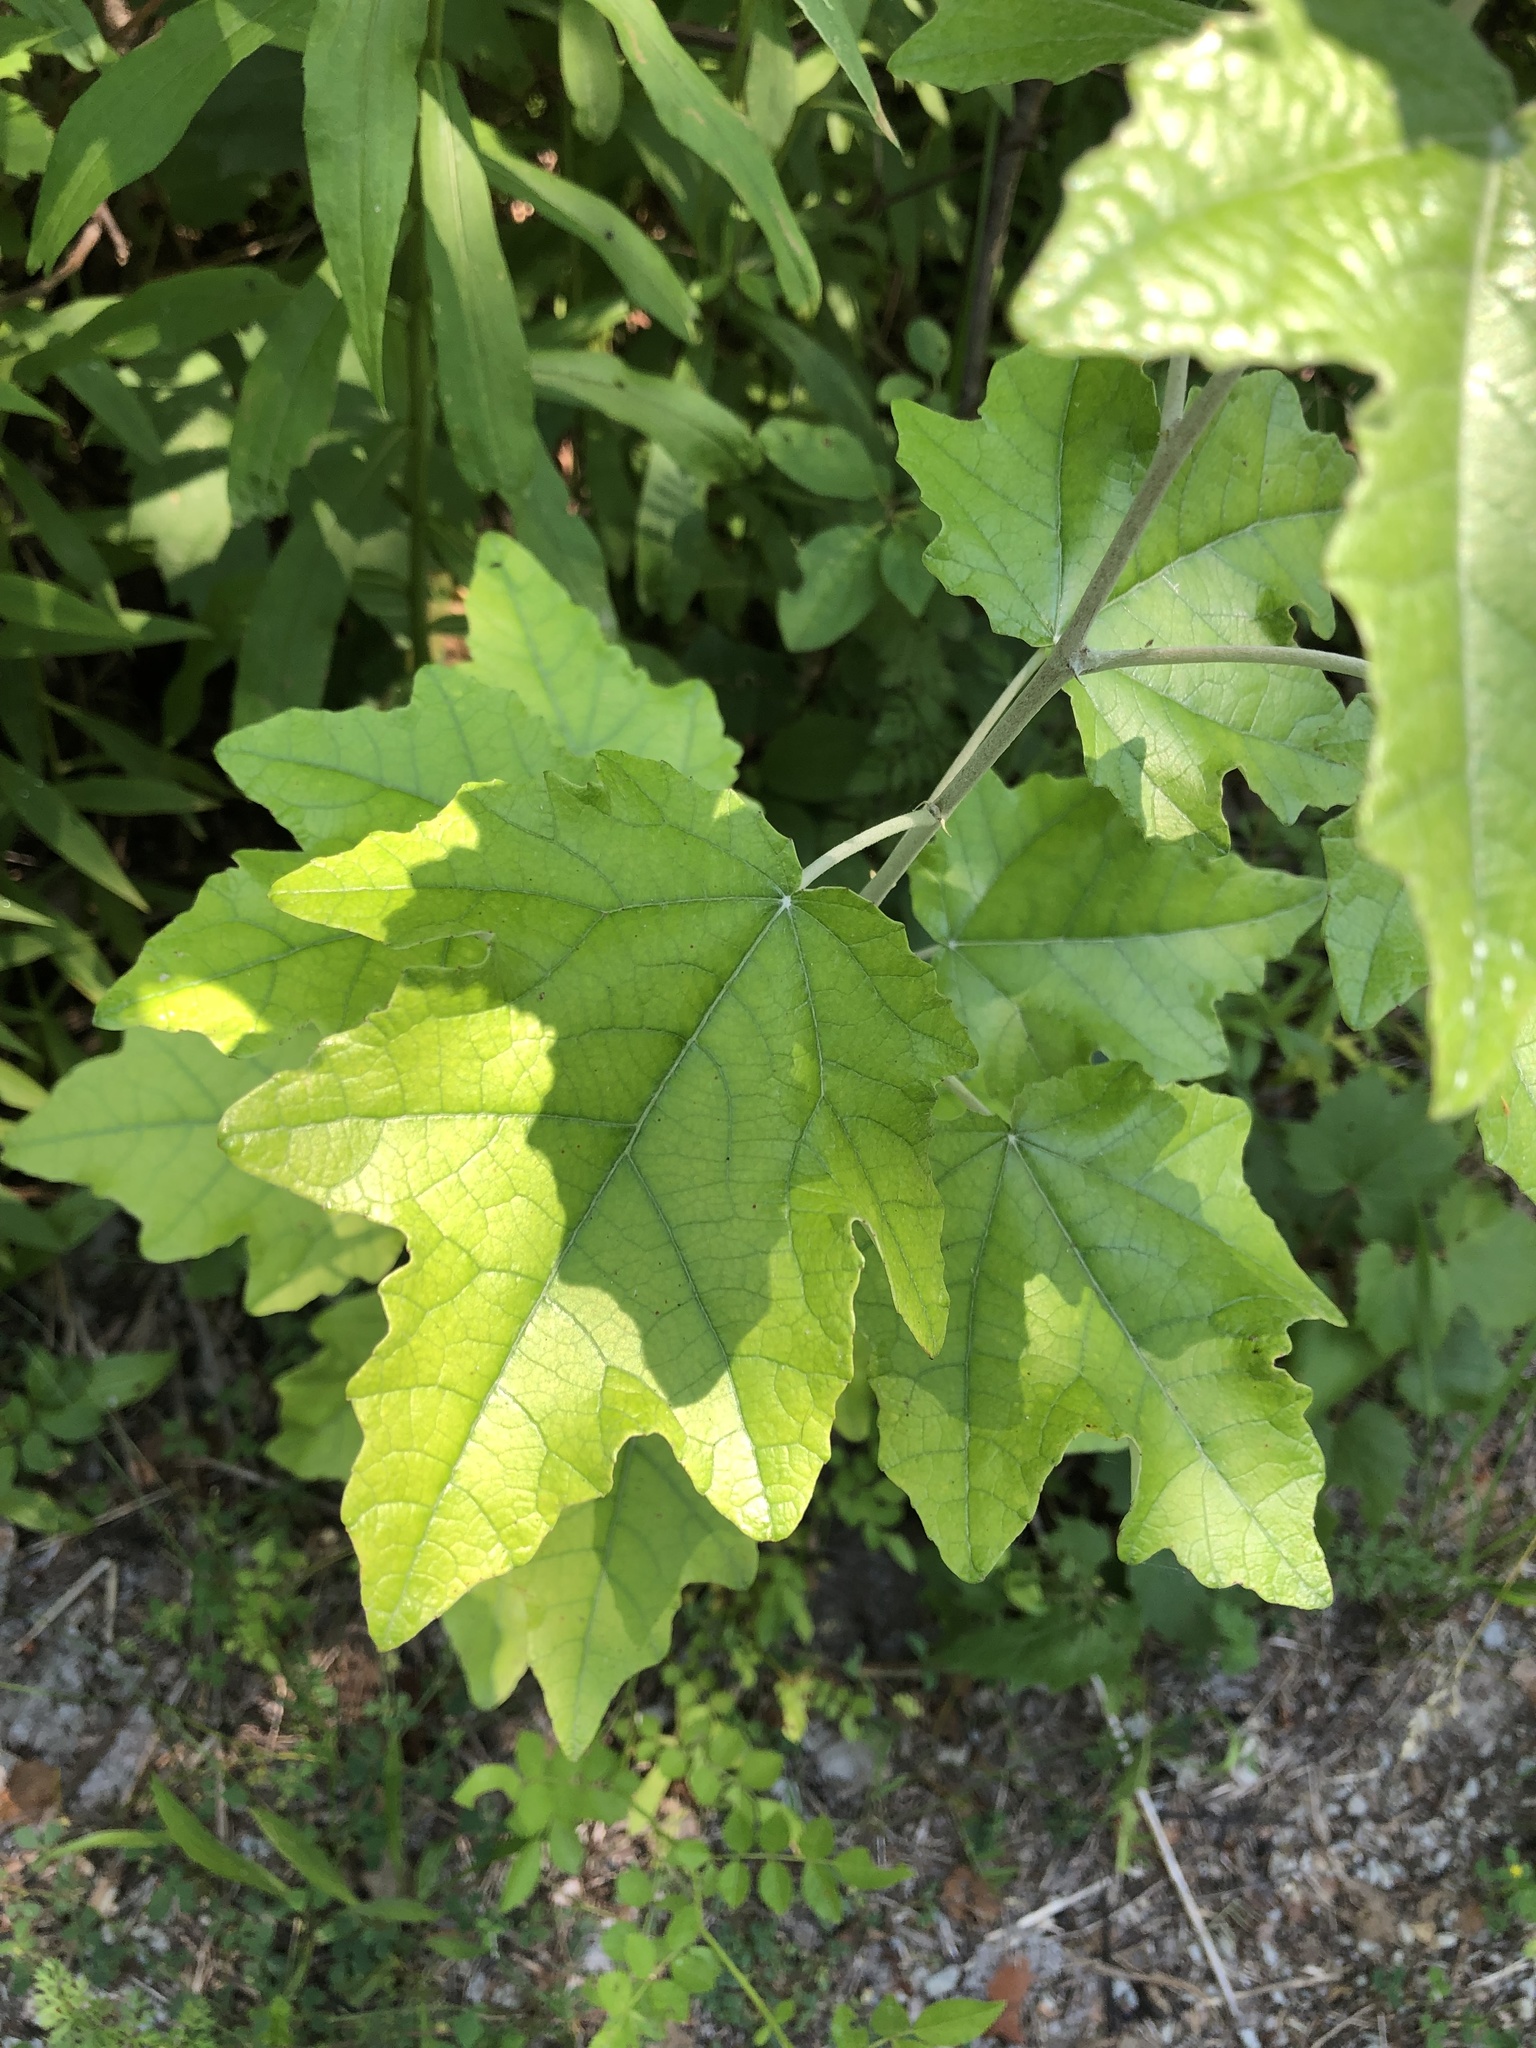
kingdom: Plantae
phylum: Tracheophyta
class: Magnoliopsida
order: Malpighiales
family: Salicaceae
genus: Populus
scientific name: Populus alba
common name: White poplar
